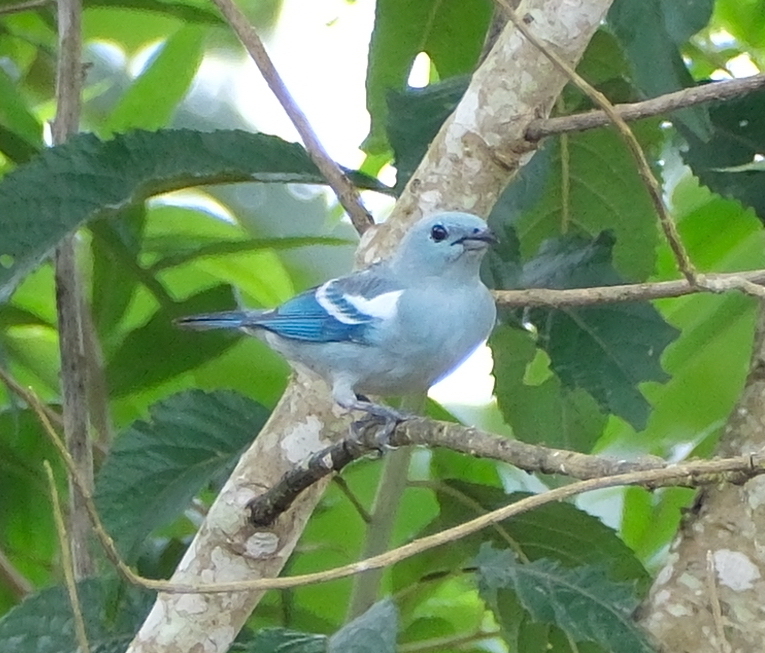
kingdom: Animalia
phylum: Chordata
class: Aves
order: Passeriformes
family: Thraupidae
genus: Thraupis
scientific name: Thraupis episcopus
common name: Blue-grey tanager
